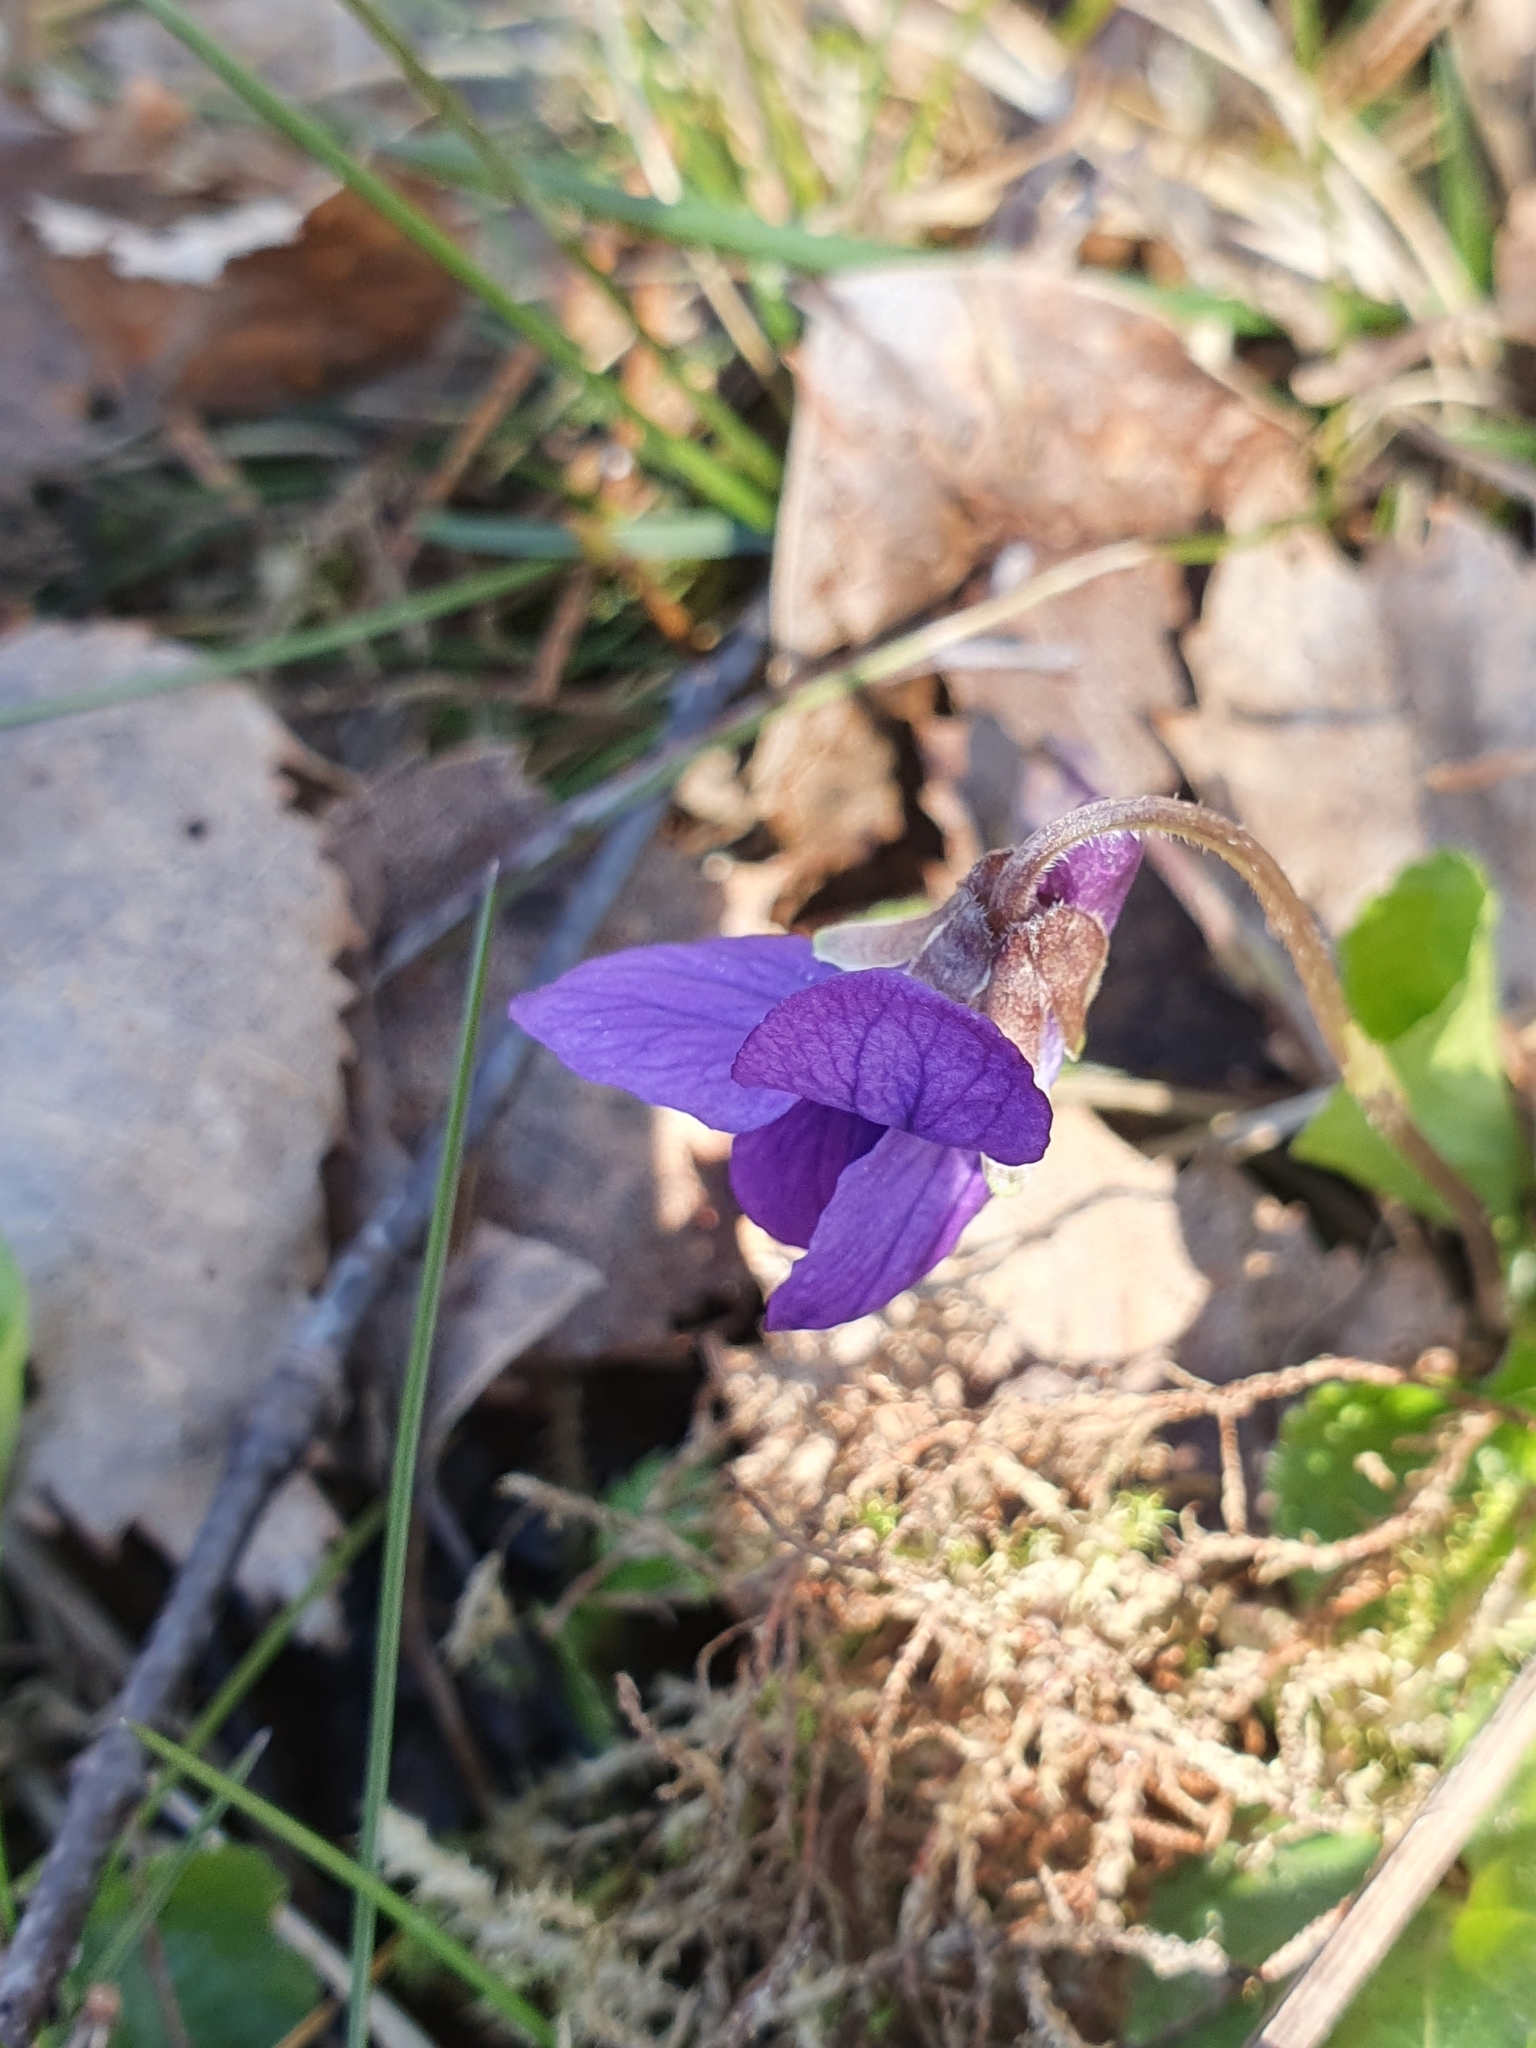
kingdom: Plantae
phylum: Tracheophyta
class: Magnoliopsida
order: Malpighiales
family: Violaceae
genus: Viola
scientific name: Viola odorata
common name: Sweet violet
